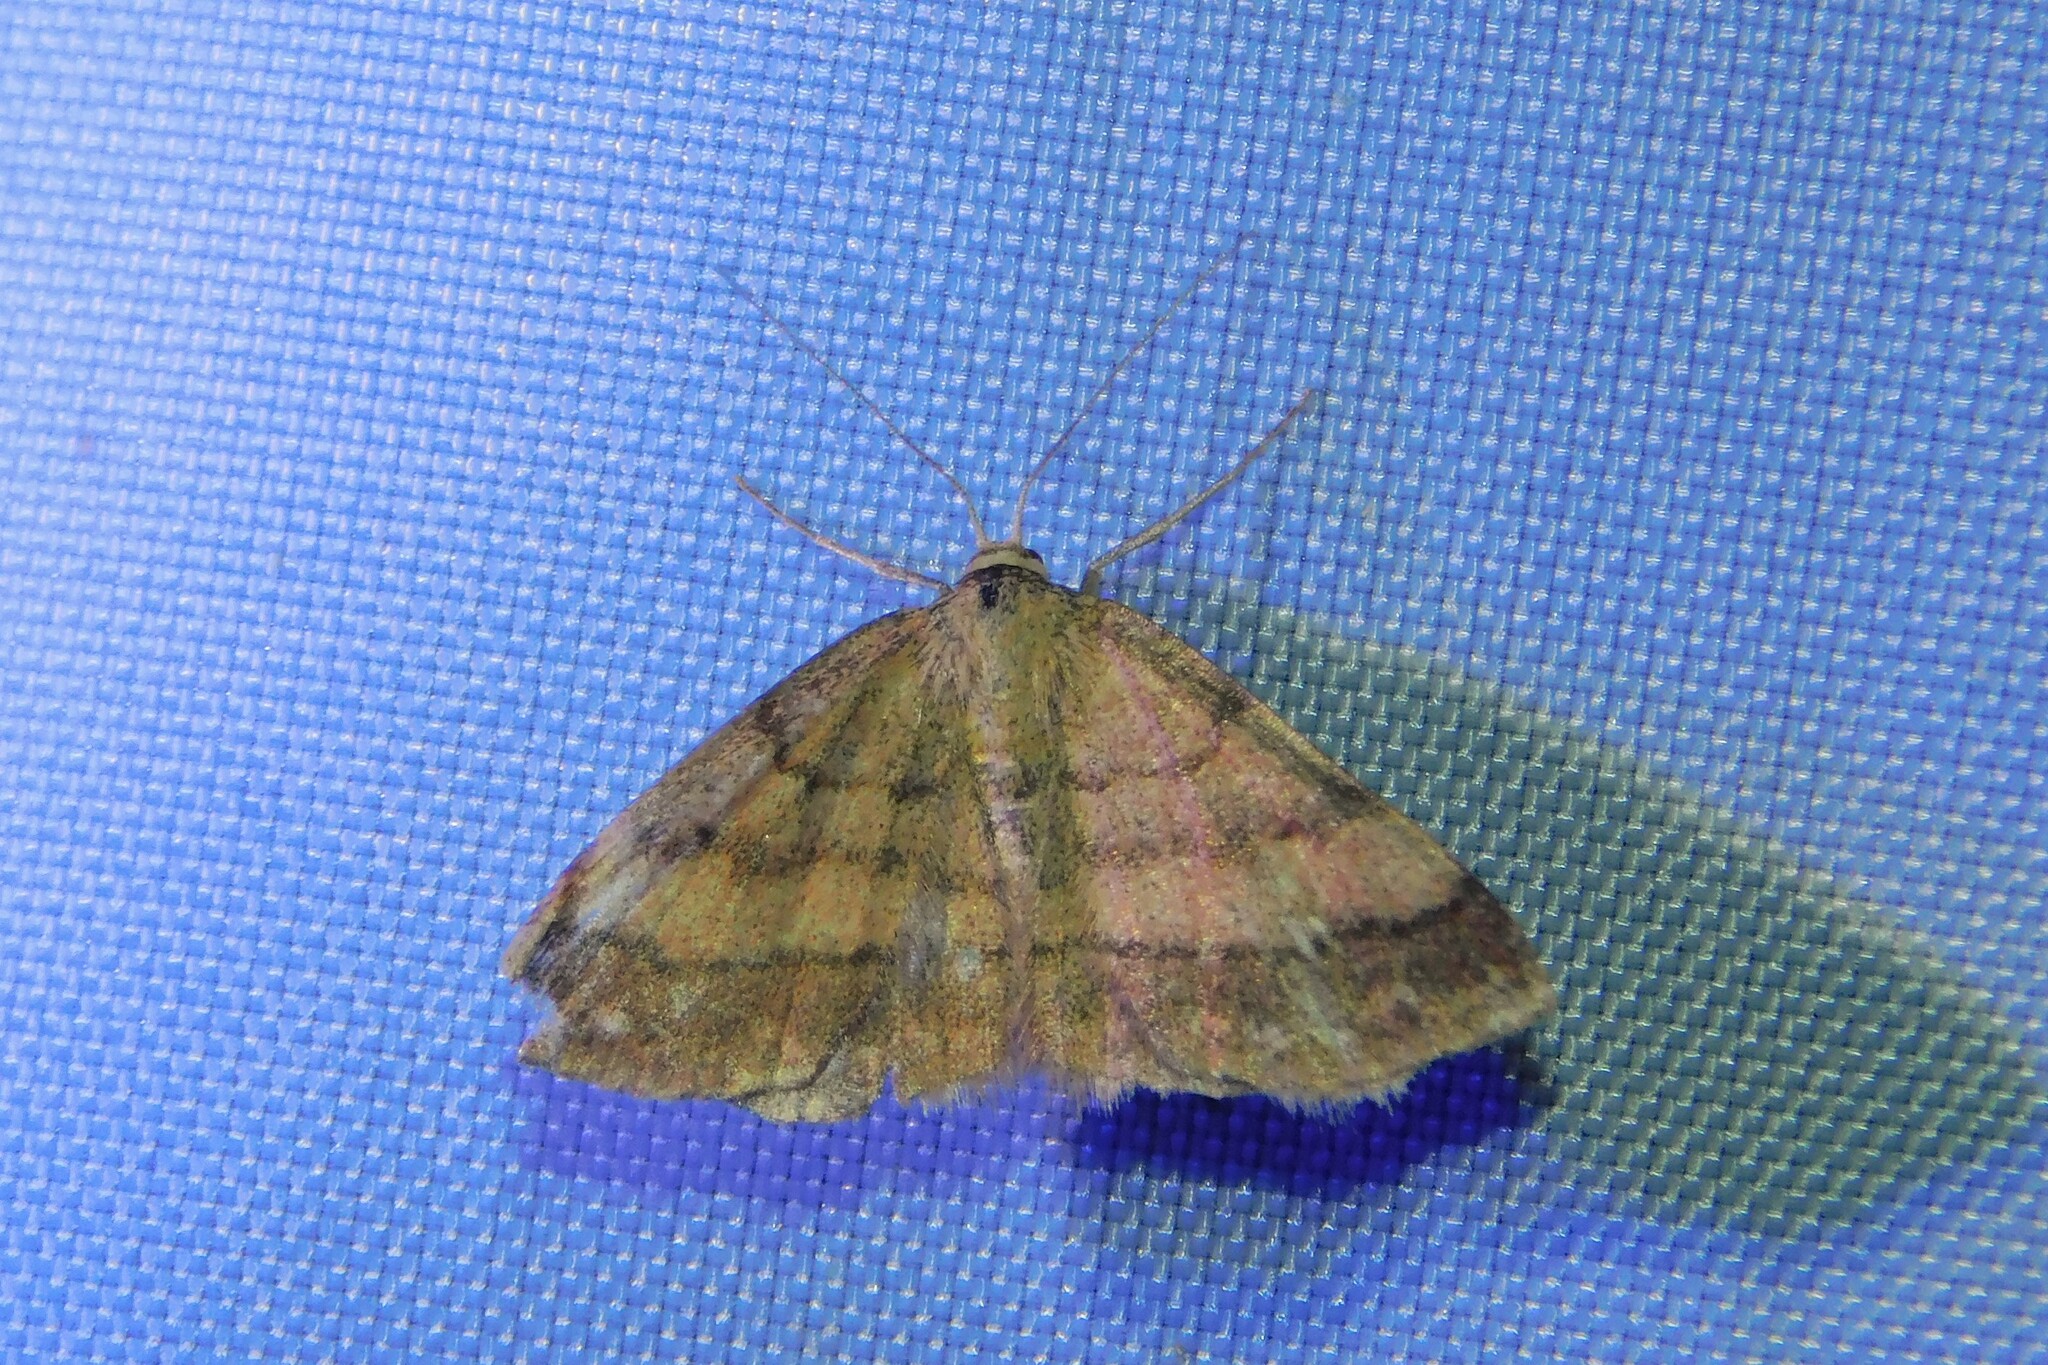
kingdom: Animalia
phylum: Arthropoda
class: Insecta
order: Lepidoptera
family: Geometridae
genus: Scopula
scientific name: Scopula rubiginata
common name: Tawny wave
